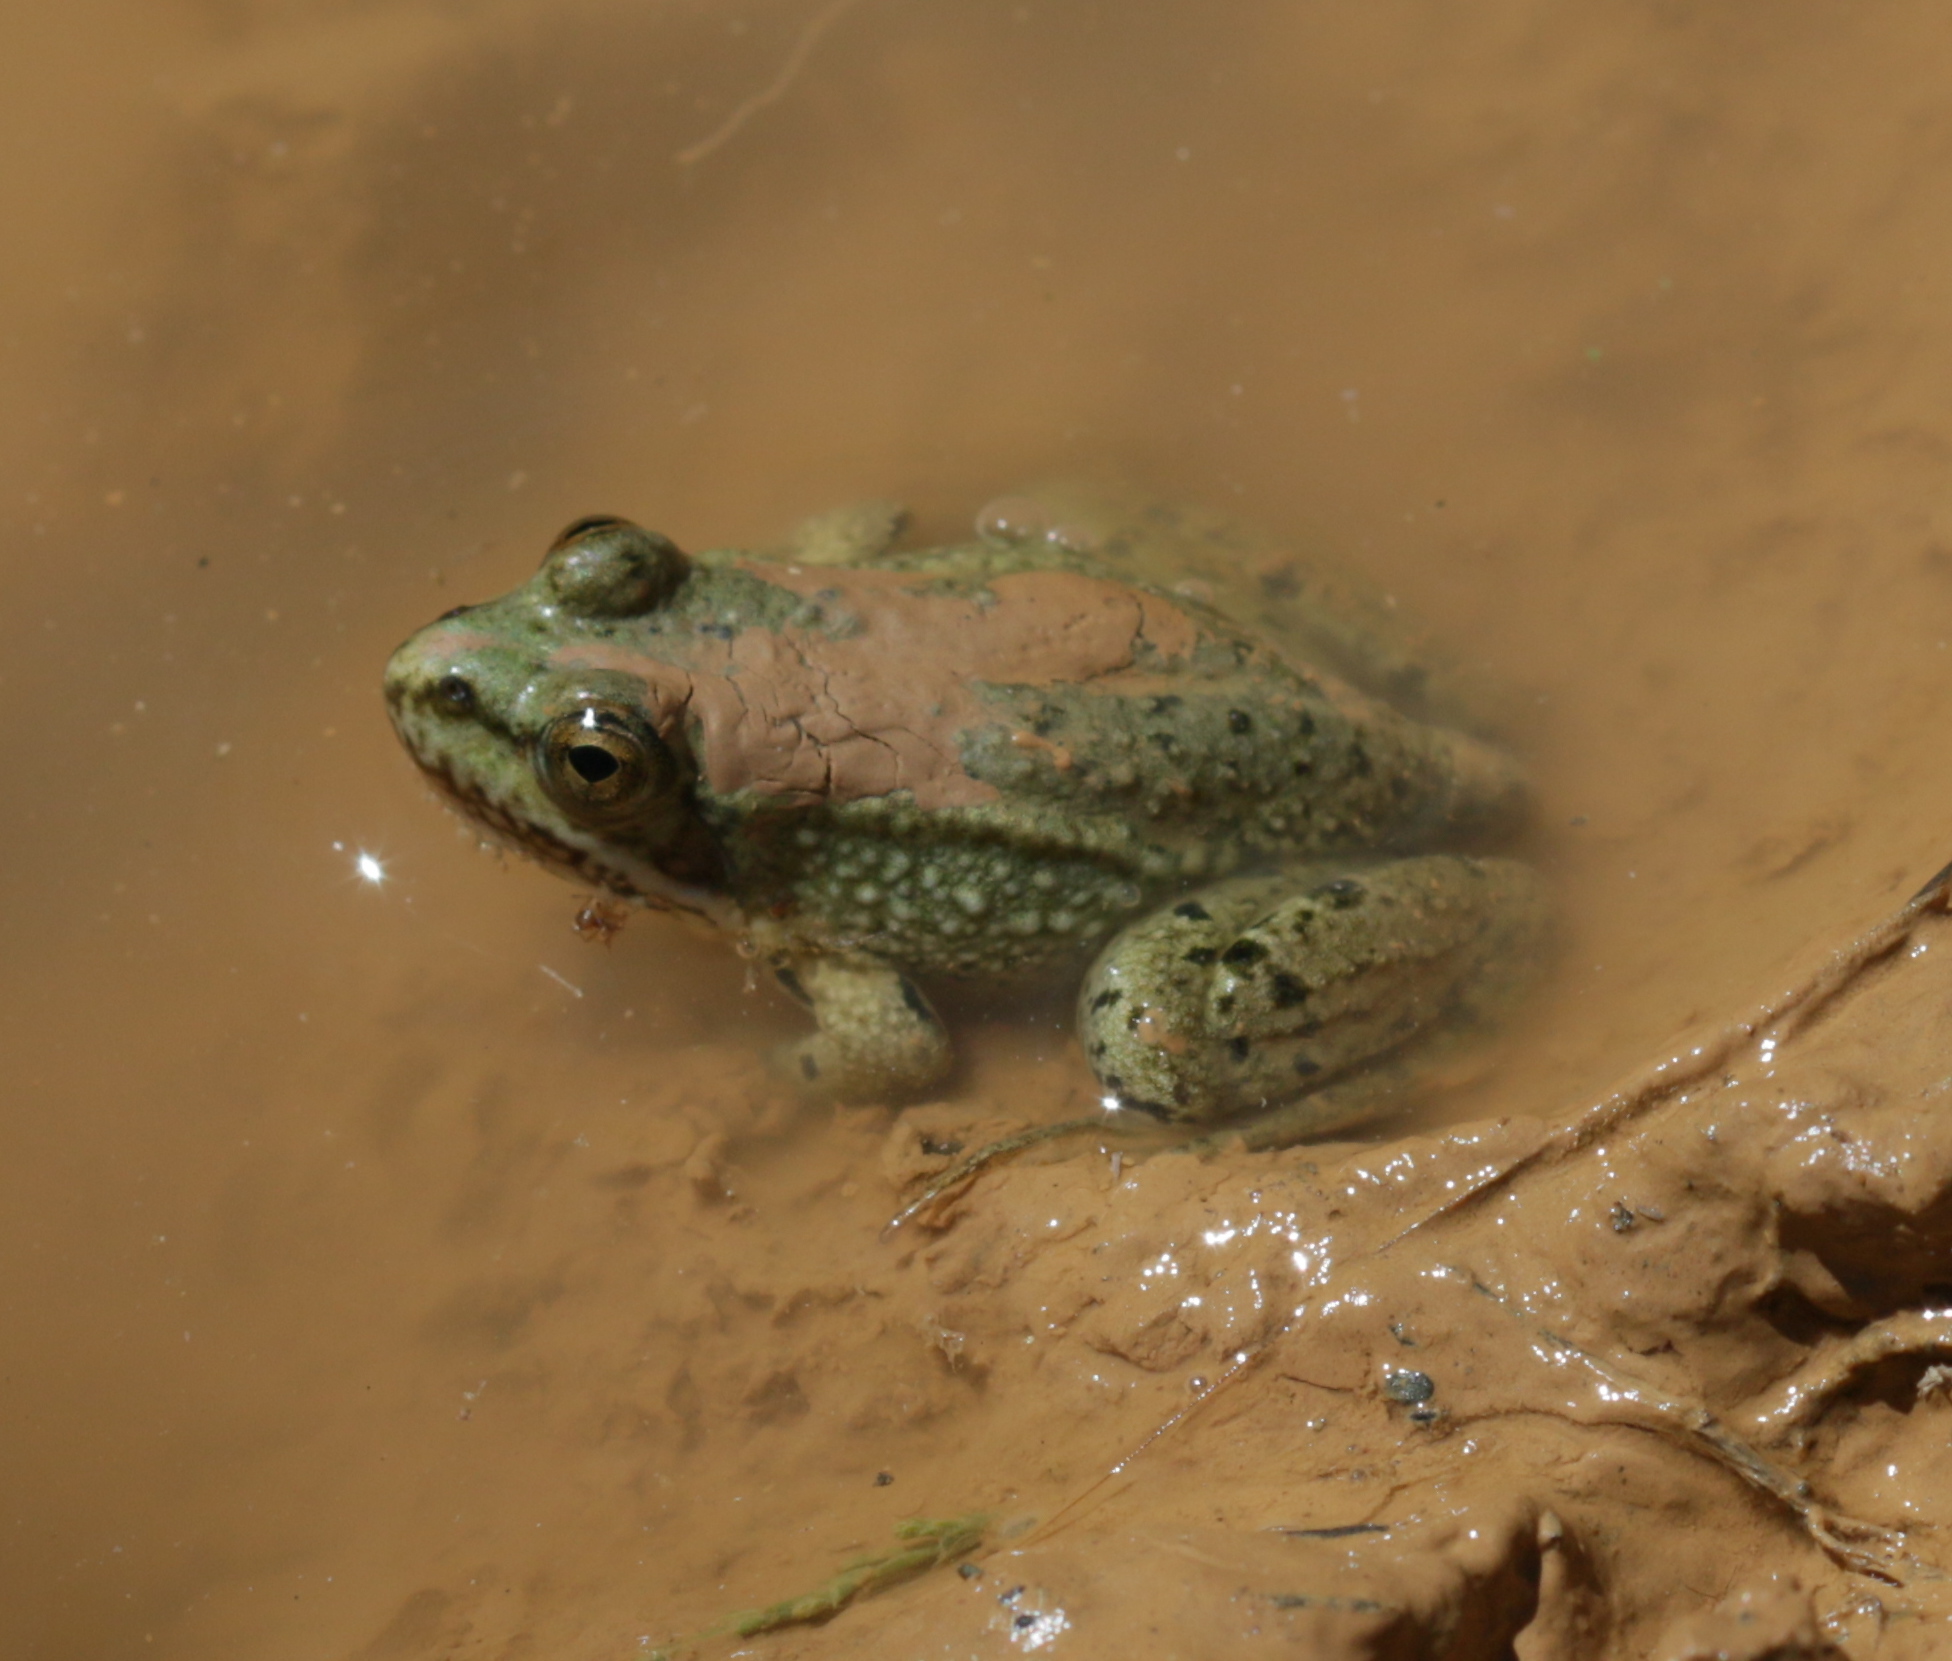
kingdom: Animalia
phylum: Chordata
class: Amphibia
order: Anura
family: Ranidae
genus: Pelophylax
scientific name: Pelophylax perezi
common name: Perez's frog
